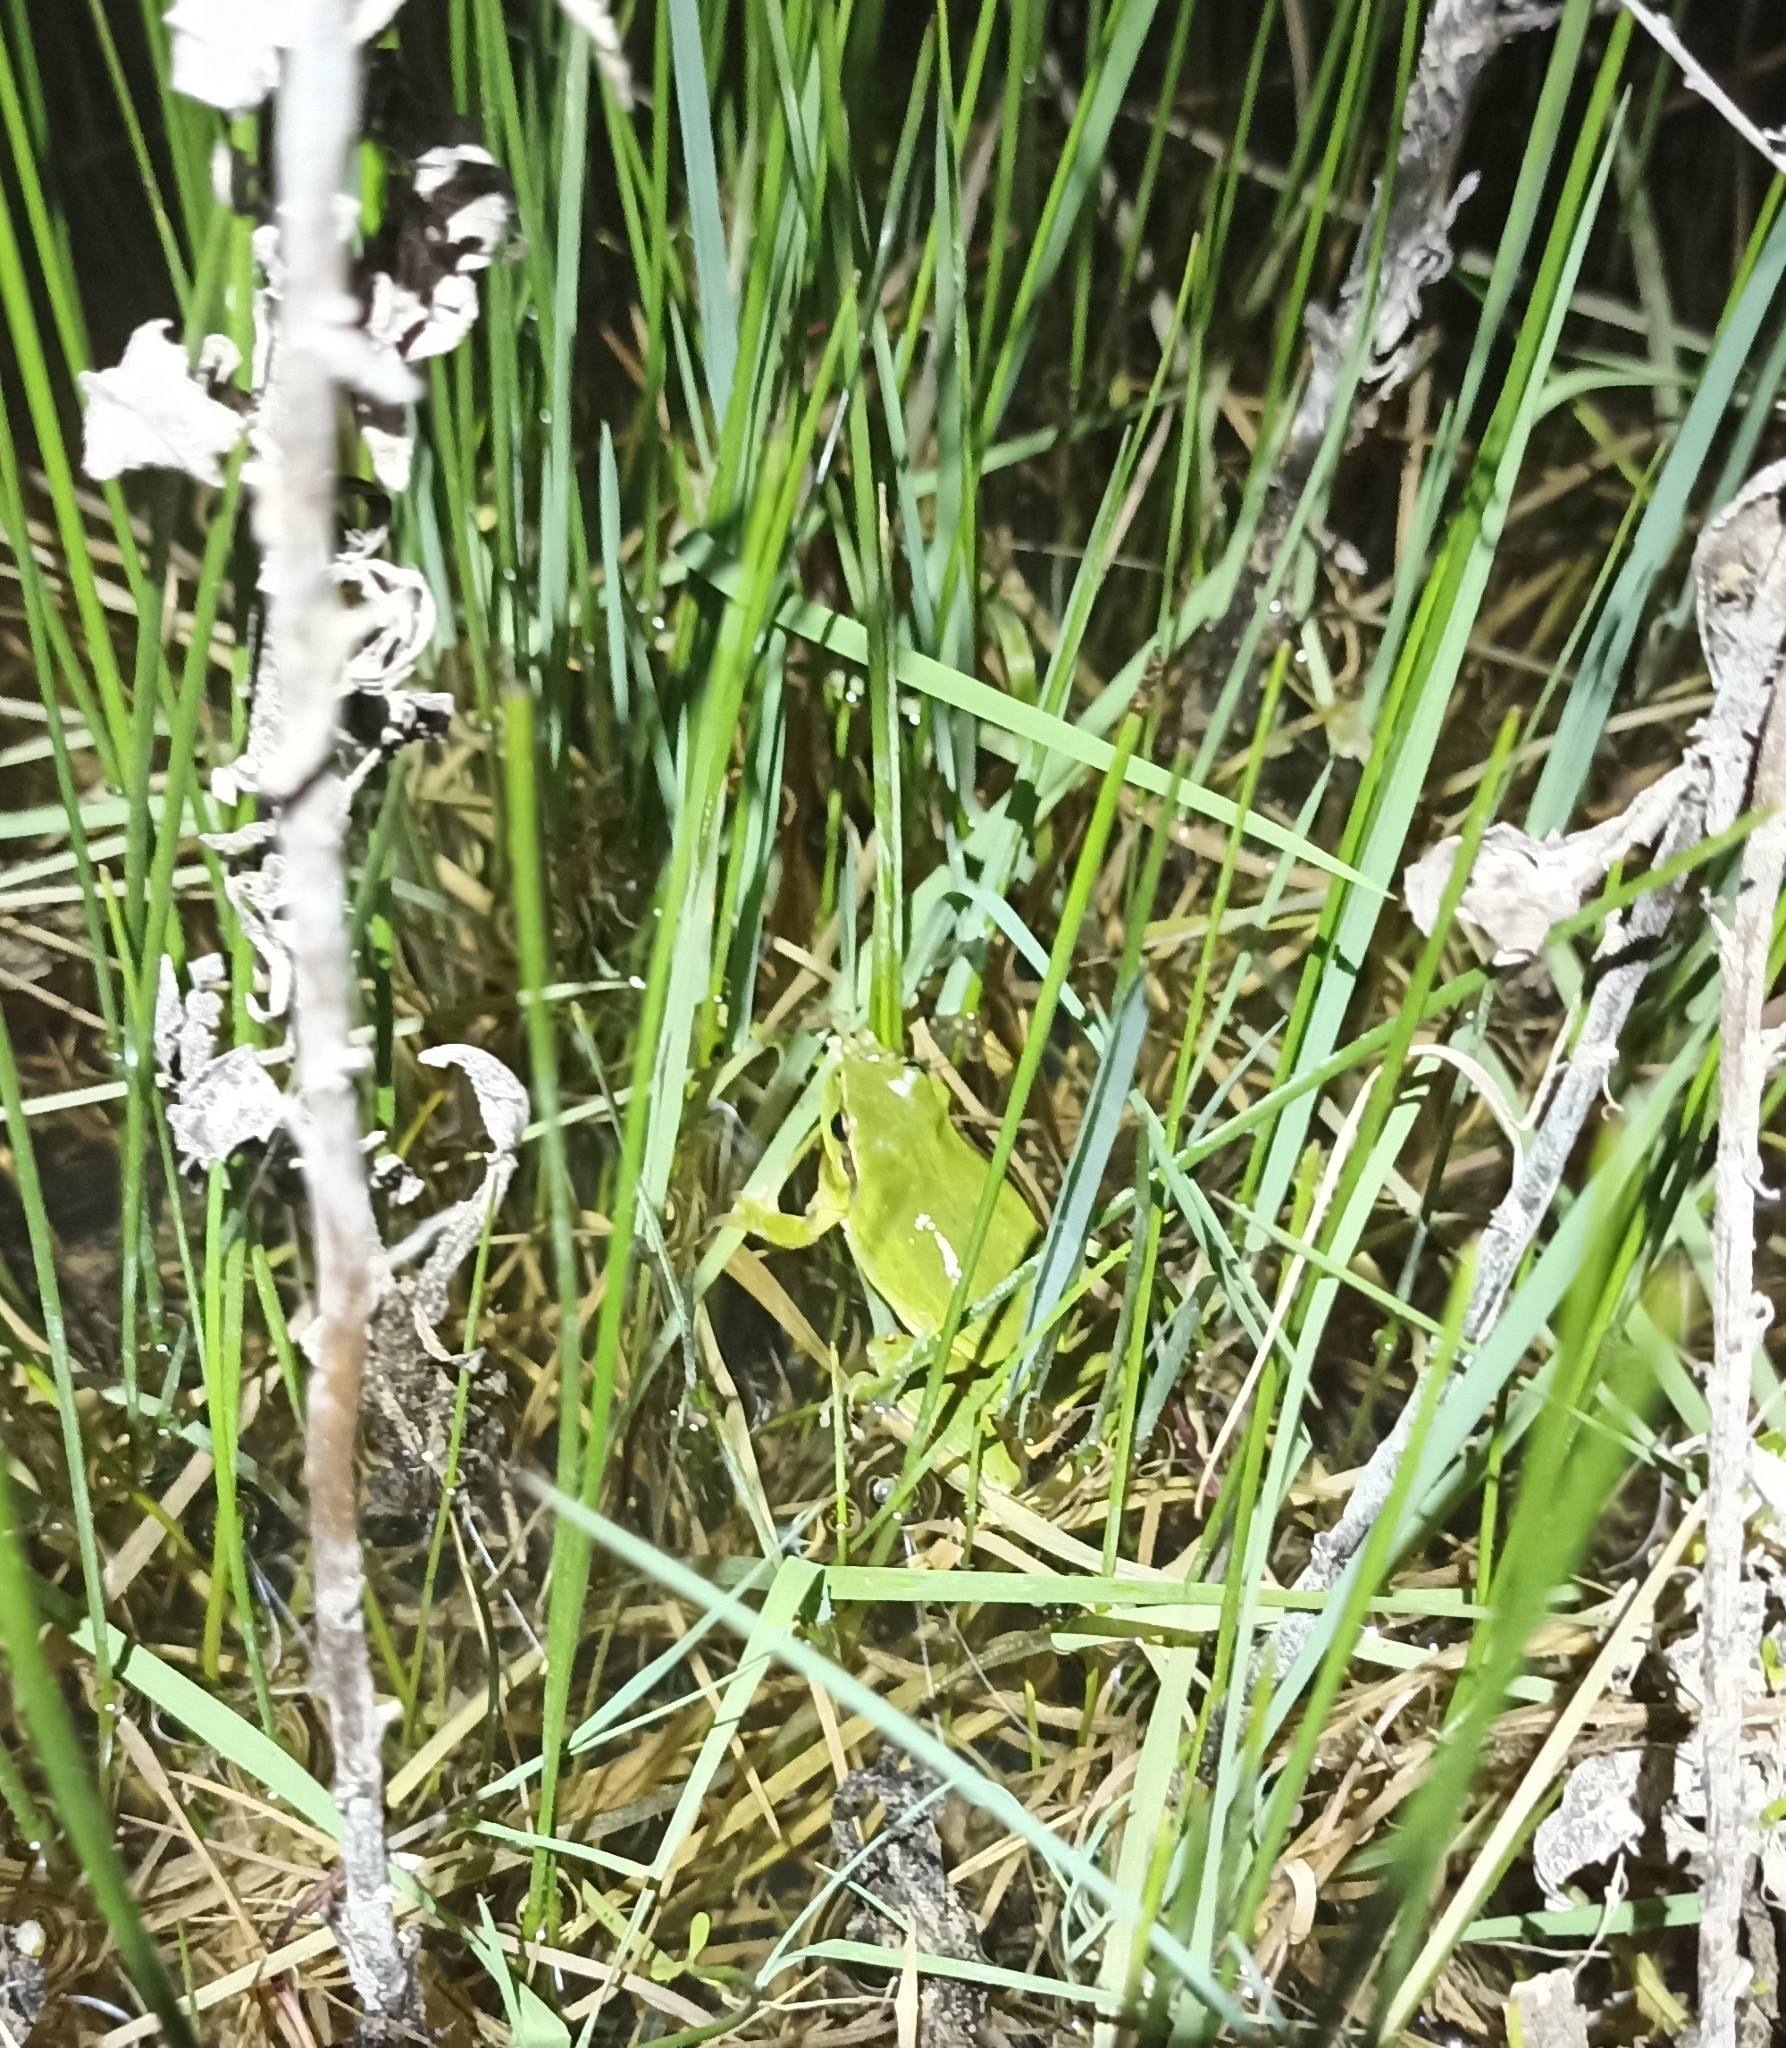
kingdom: Animalia
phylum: Chordata
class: Amphibia
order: Anura
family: Hylidae
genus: Hyla
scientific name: Hyla meridionalis
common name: Stripeless tree frog
